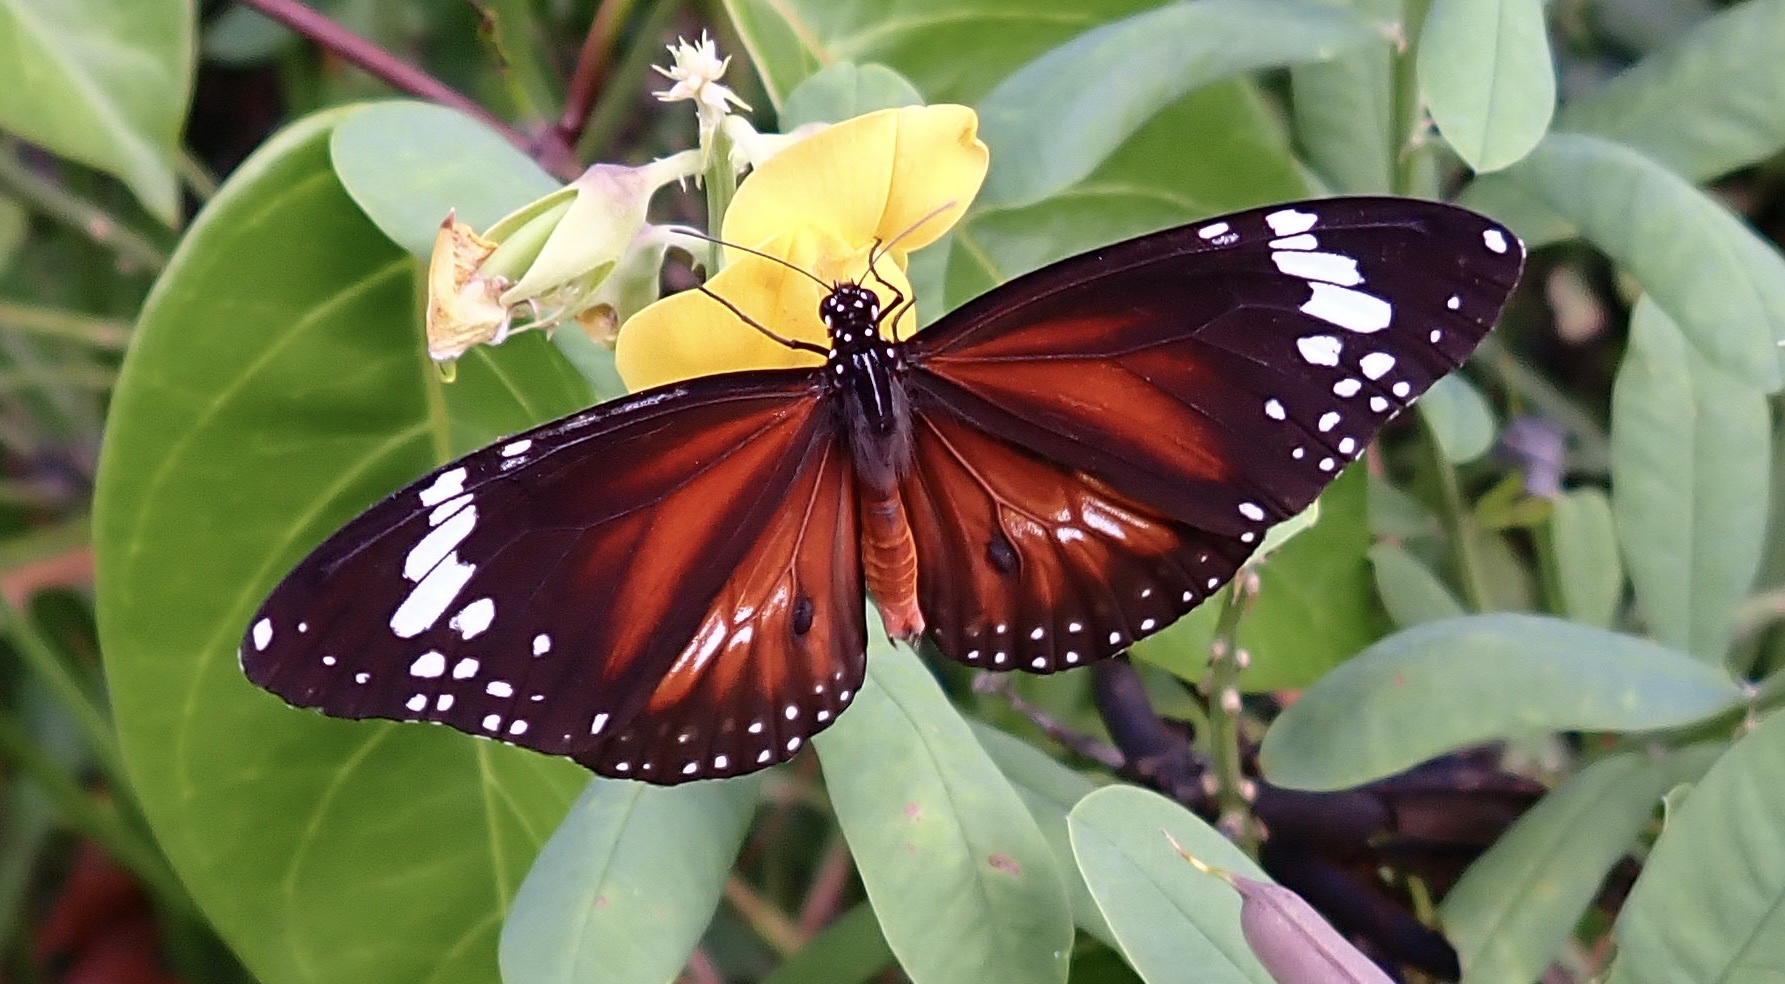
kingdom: Animalia
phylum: Arthropoda
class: Insecta
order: Lepidoptera
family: Nymphalidae
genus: Danaus
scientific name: Danaus affinis
